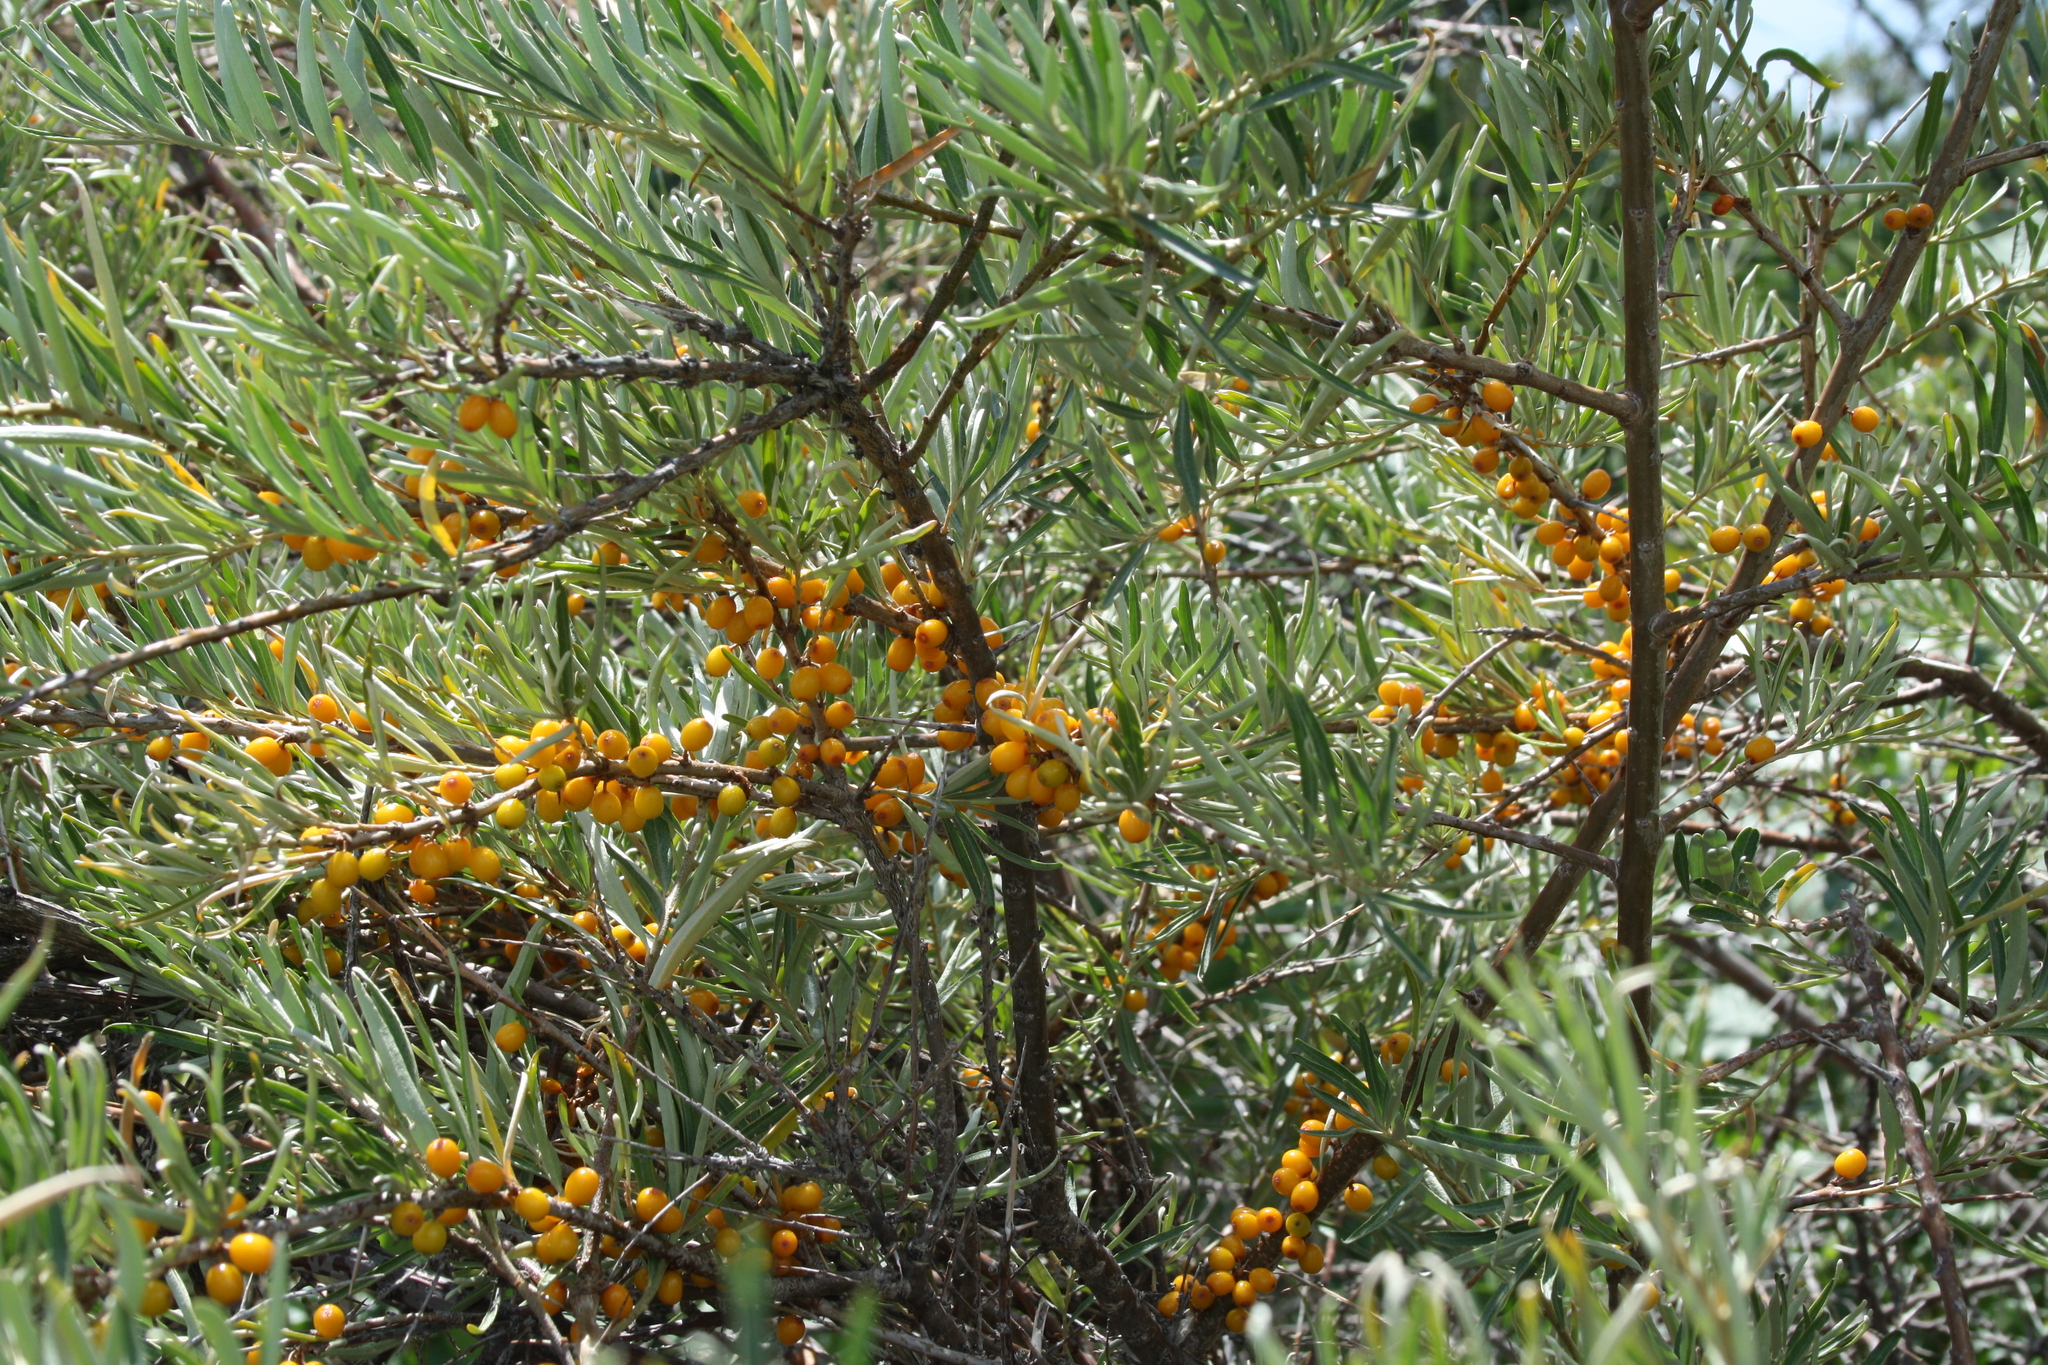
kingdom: Plantae
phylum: Tracheophyta
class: Magnoliopsida
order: Rosales
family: Elaeagnaceae
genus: Hippophae
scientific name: Hippophae rhamnoides
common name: Sea-buckthorn
